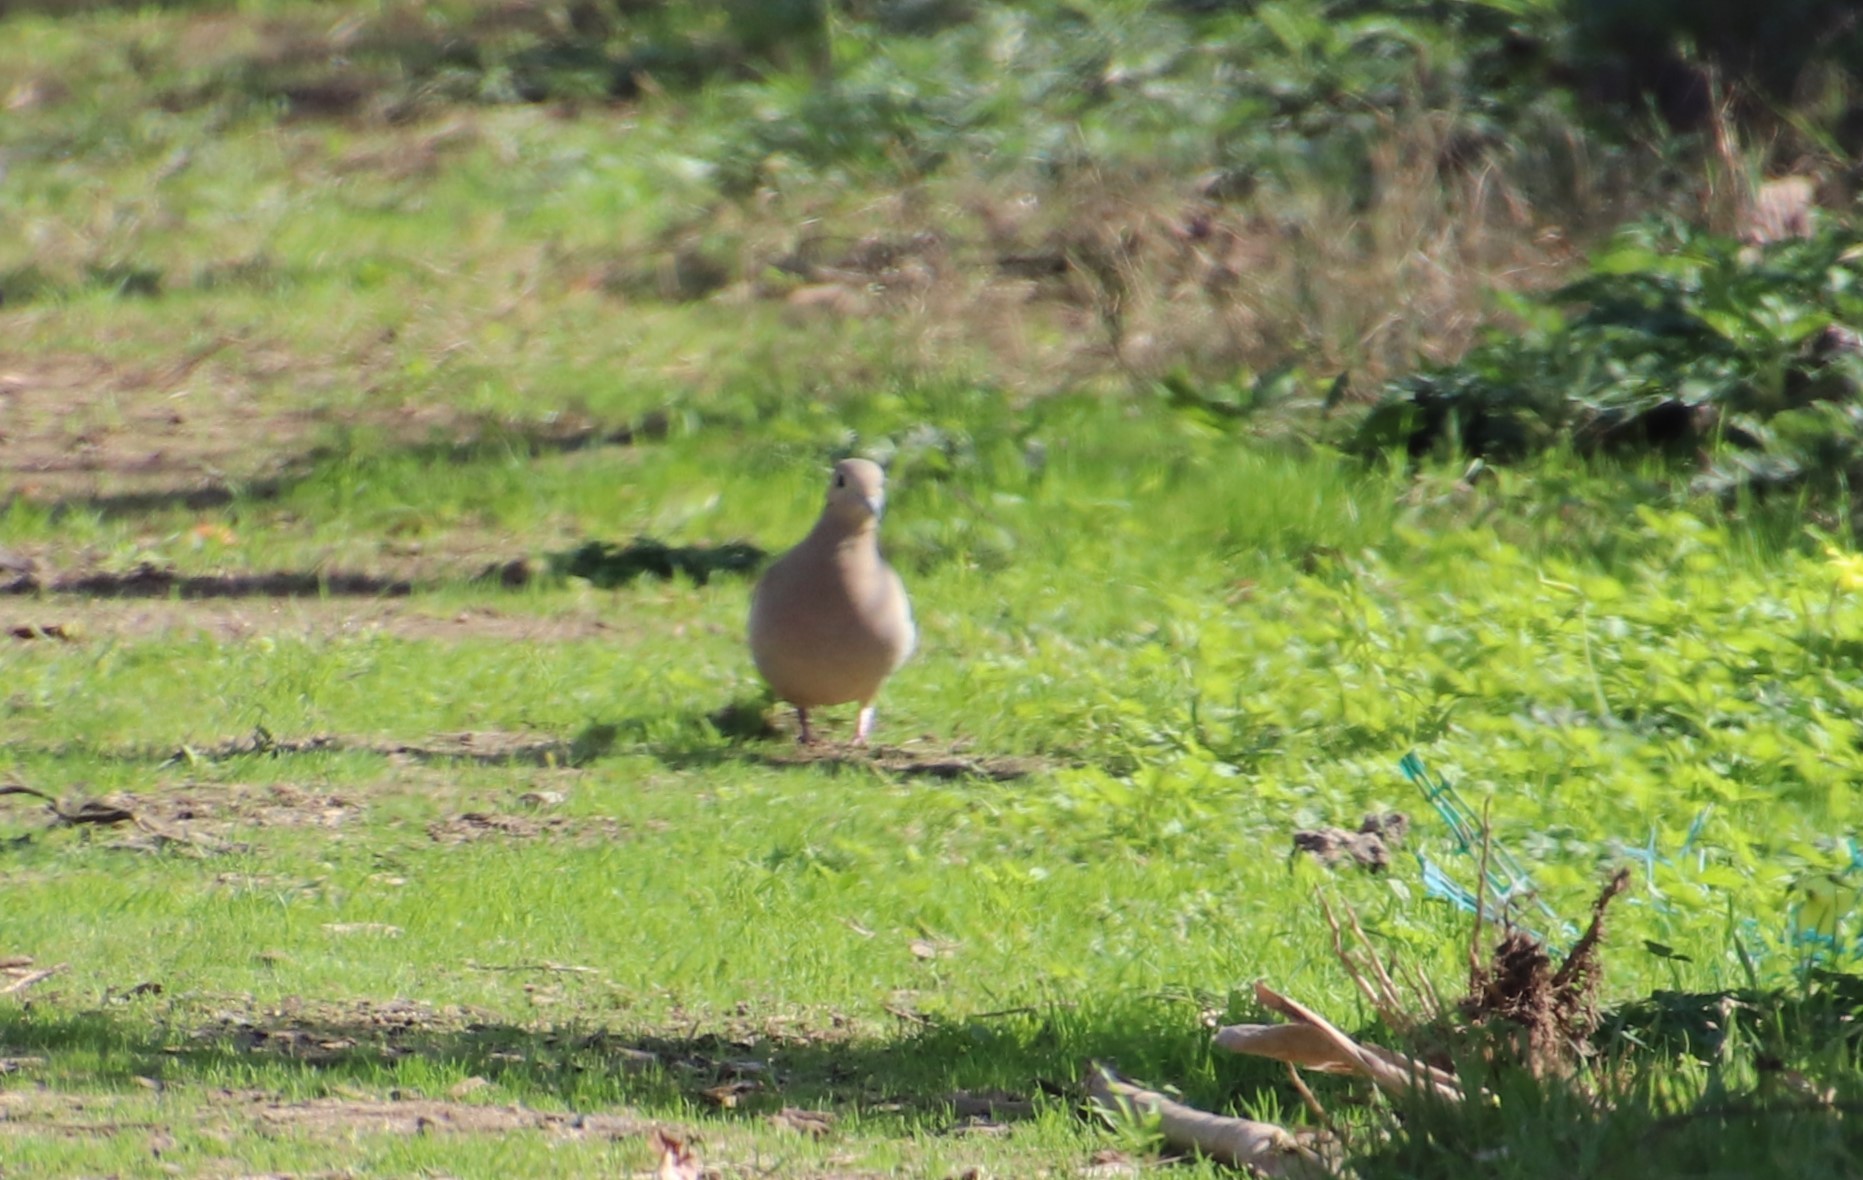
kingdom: Animalia
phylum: Chordata
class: Aves
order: Columbiformes
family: Columbidae
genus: Zenaida
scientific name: Zenaida macroura
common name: Mourning dove
